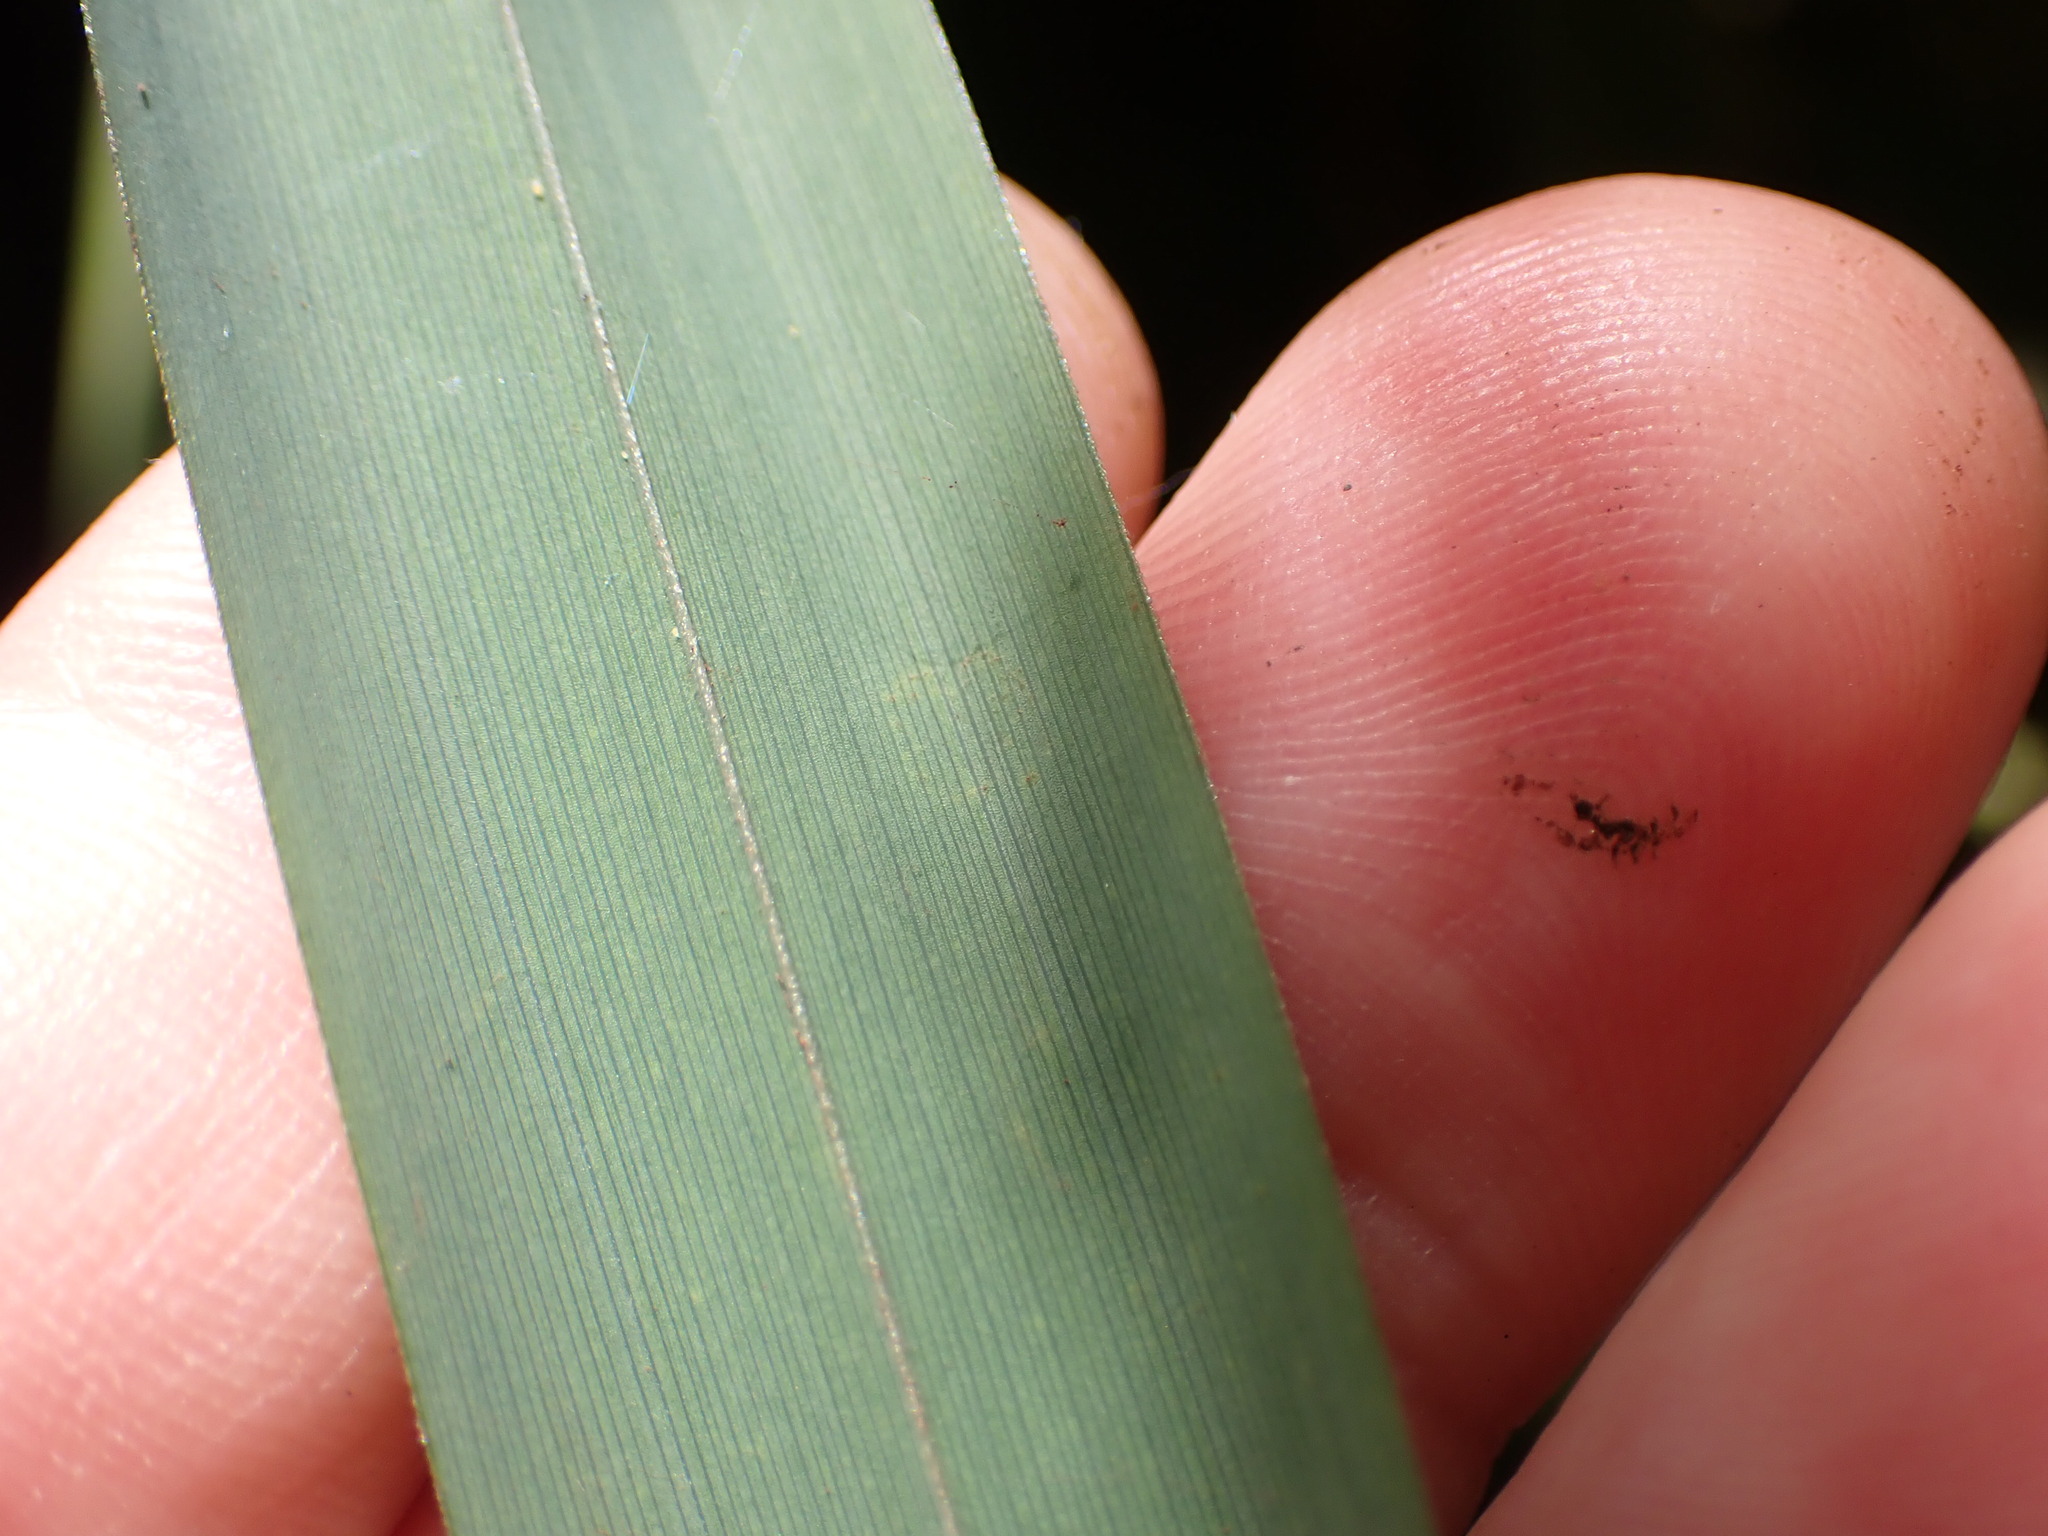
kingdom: Plantae
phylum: Tracheophyta
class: Liliopsida
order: Poales
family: Cyperaceae
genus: Carex
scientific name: Carex pendula
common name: Pendulous sedge
